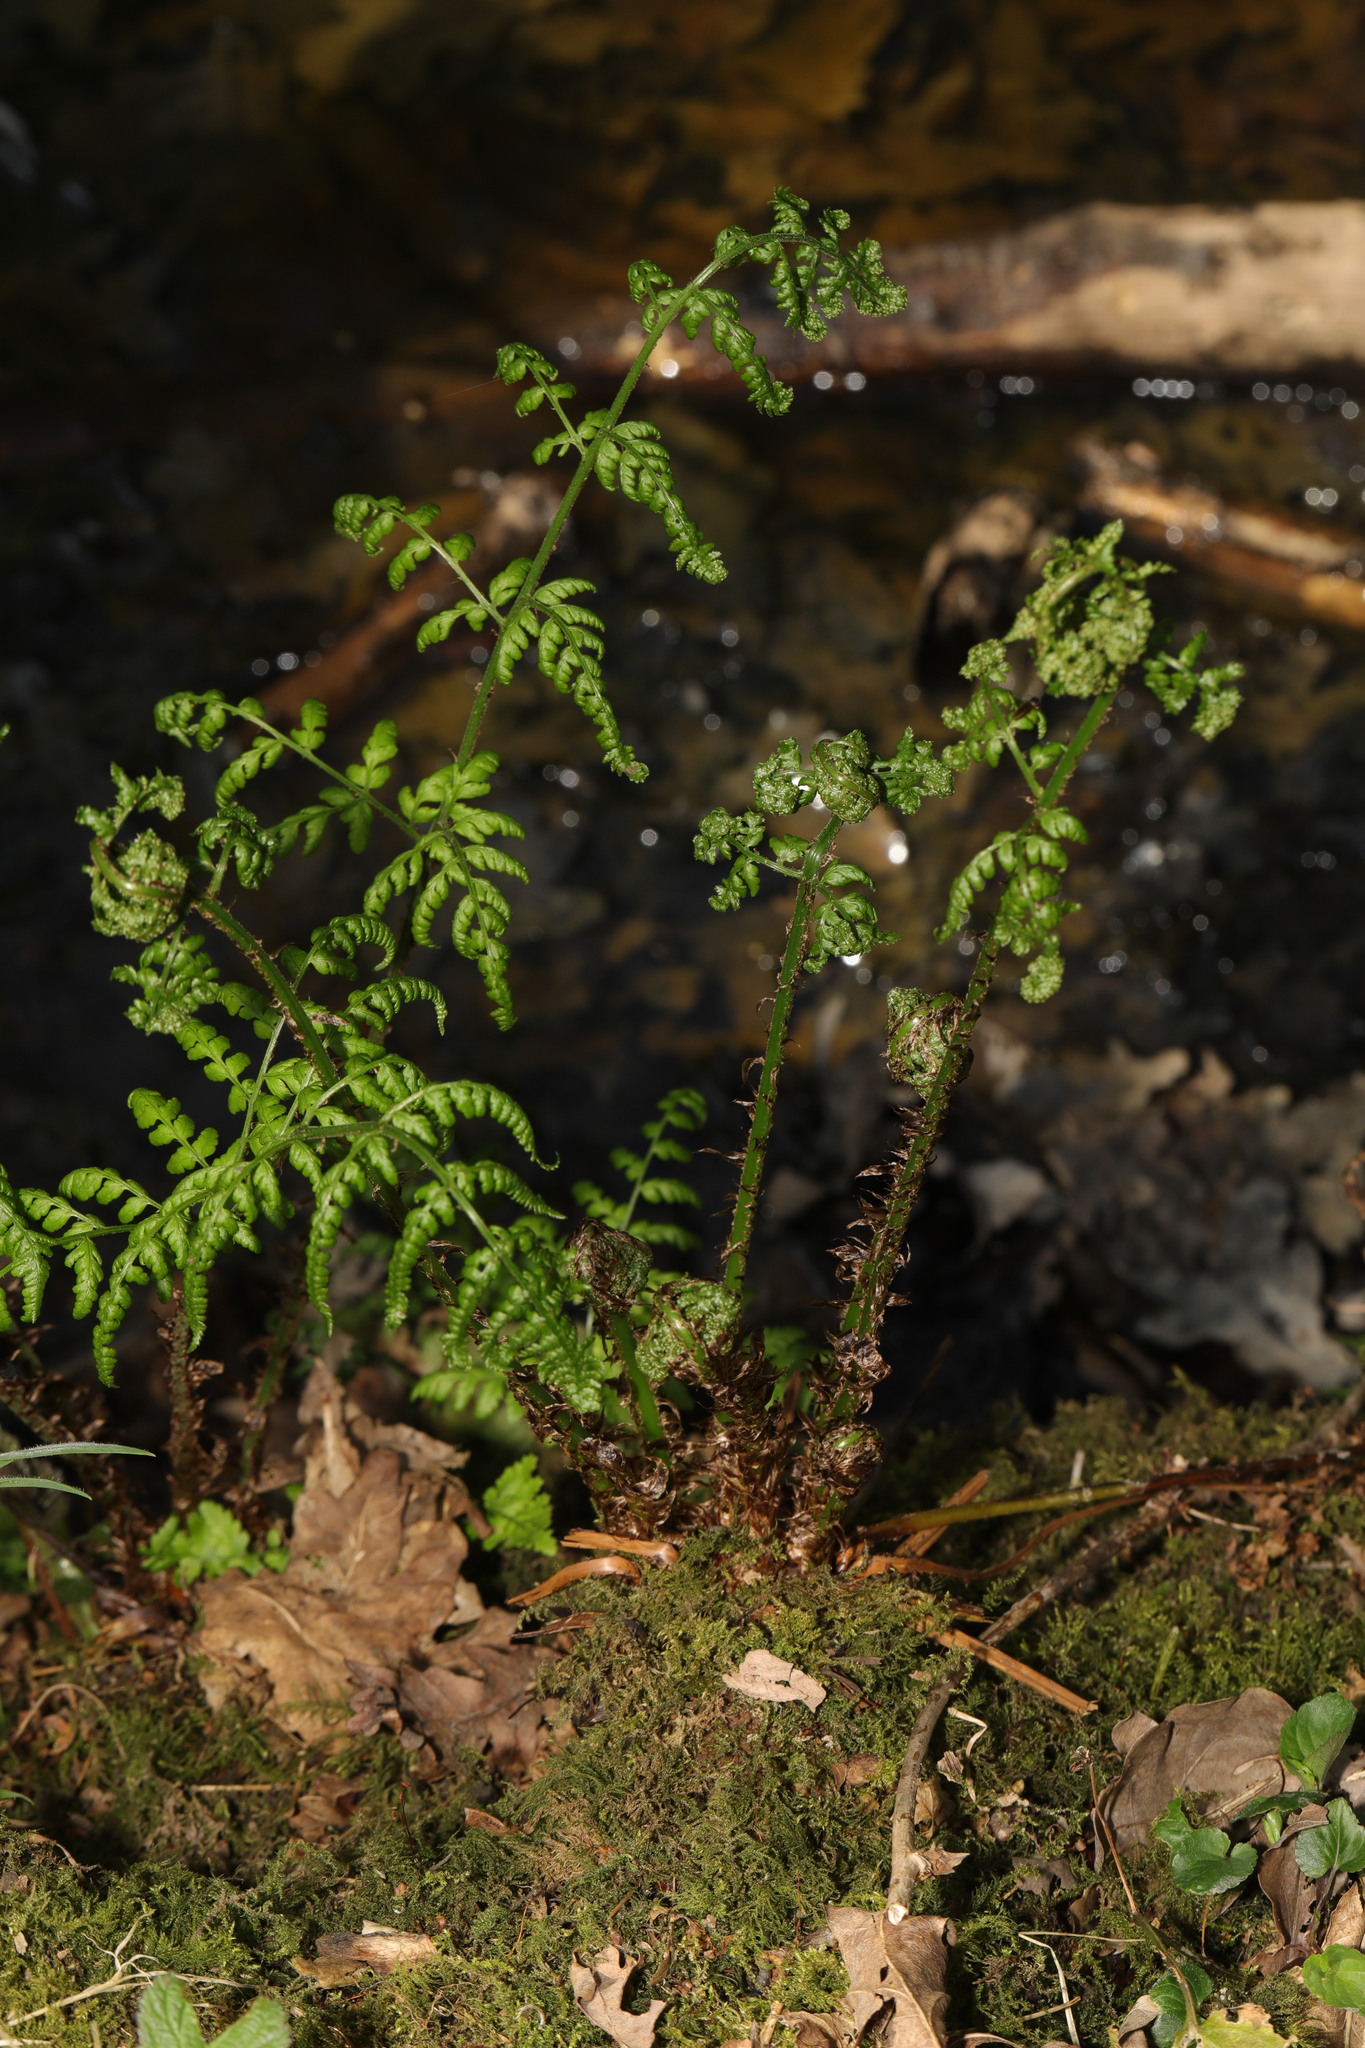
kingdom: Plantae
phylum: Tracheophyta
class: Polypodiopsida
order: Polypodiales
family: Dryopteridaceae
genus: Dryopteris
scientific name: Dryopteris dilatata
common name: Broad buckler-fern
